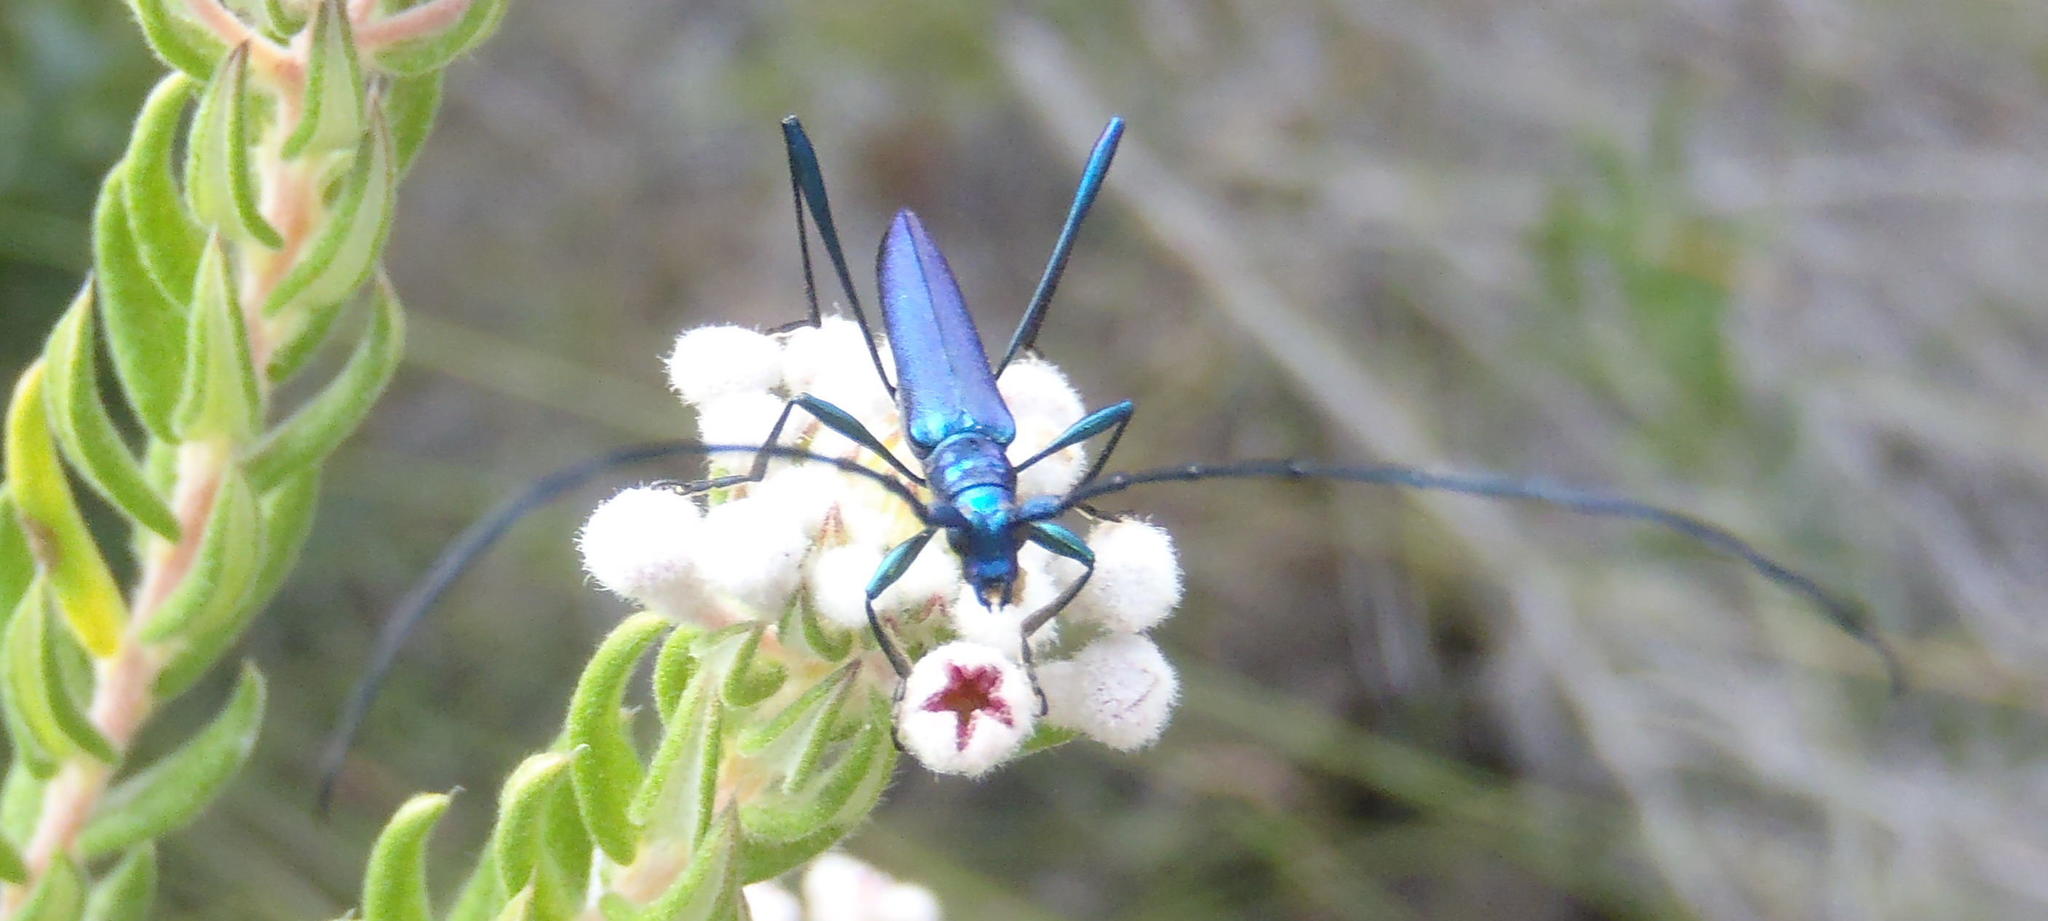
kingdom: Animalia
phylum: Arthropoda
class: Insecta
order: Coleoptera
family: Cerambycidae
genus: Promeces
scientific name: Promeces longipes
